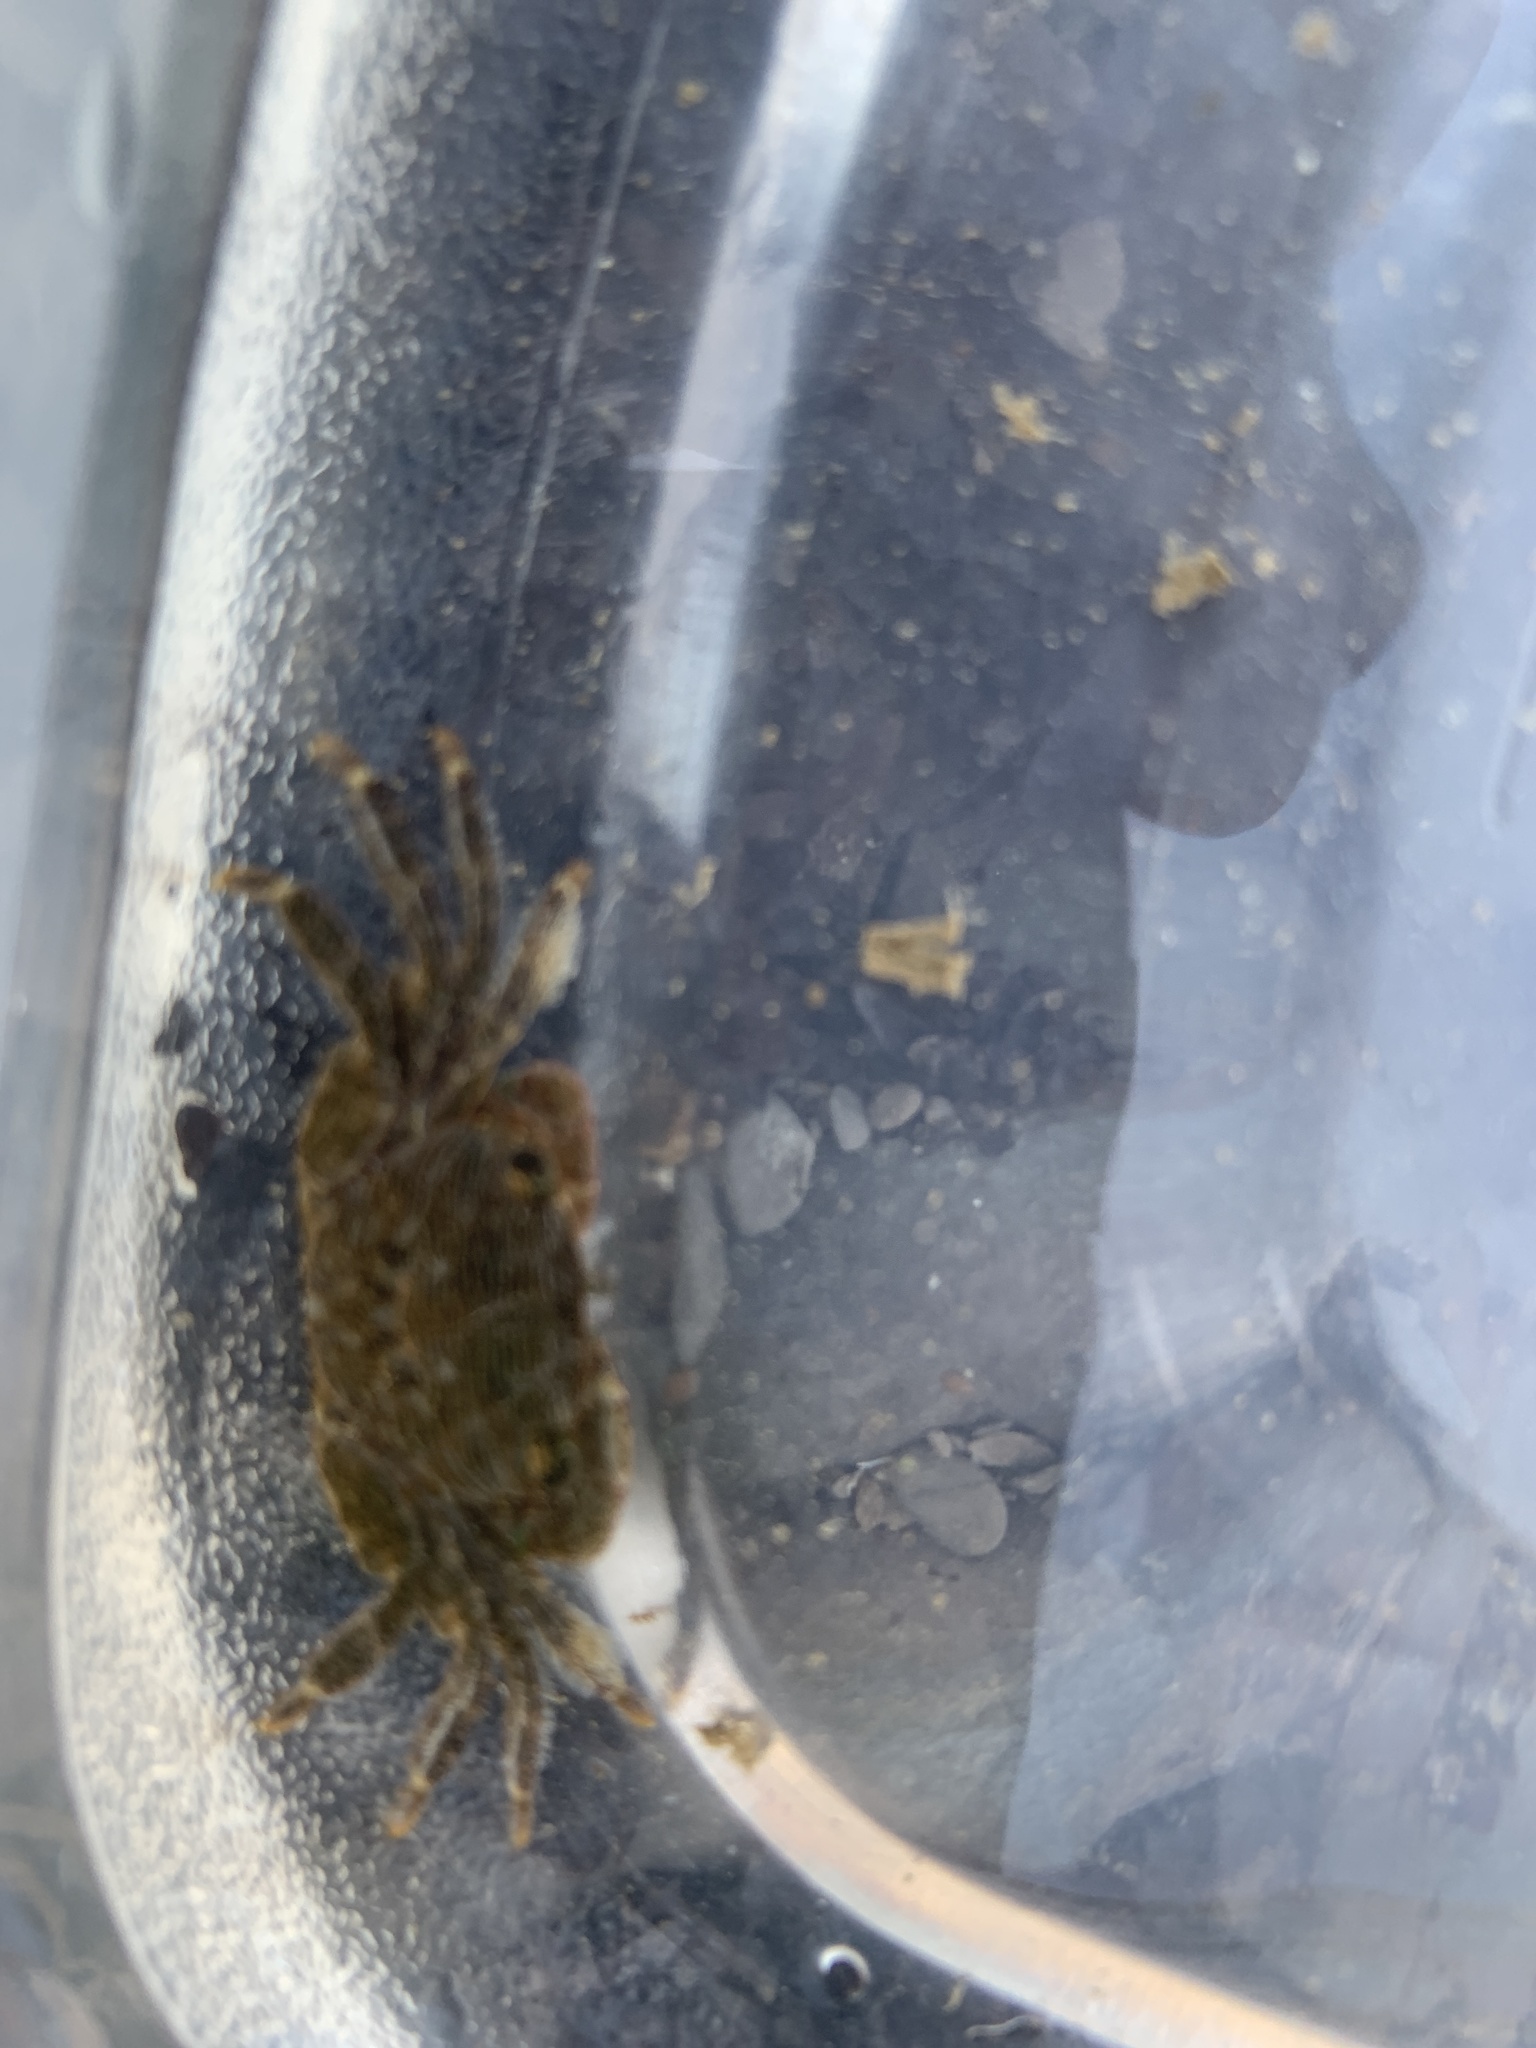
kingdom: Animalia
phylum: Arthropoda
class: Malacostraca
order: Decapoda
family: Grapsidae
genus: Pachygrapsus
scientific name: Pachygrapsus crassipes
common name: Striped shore crab
